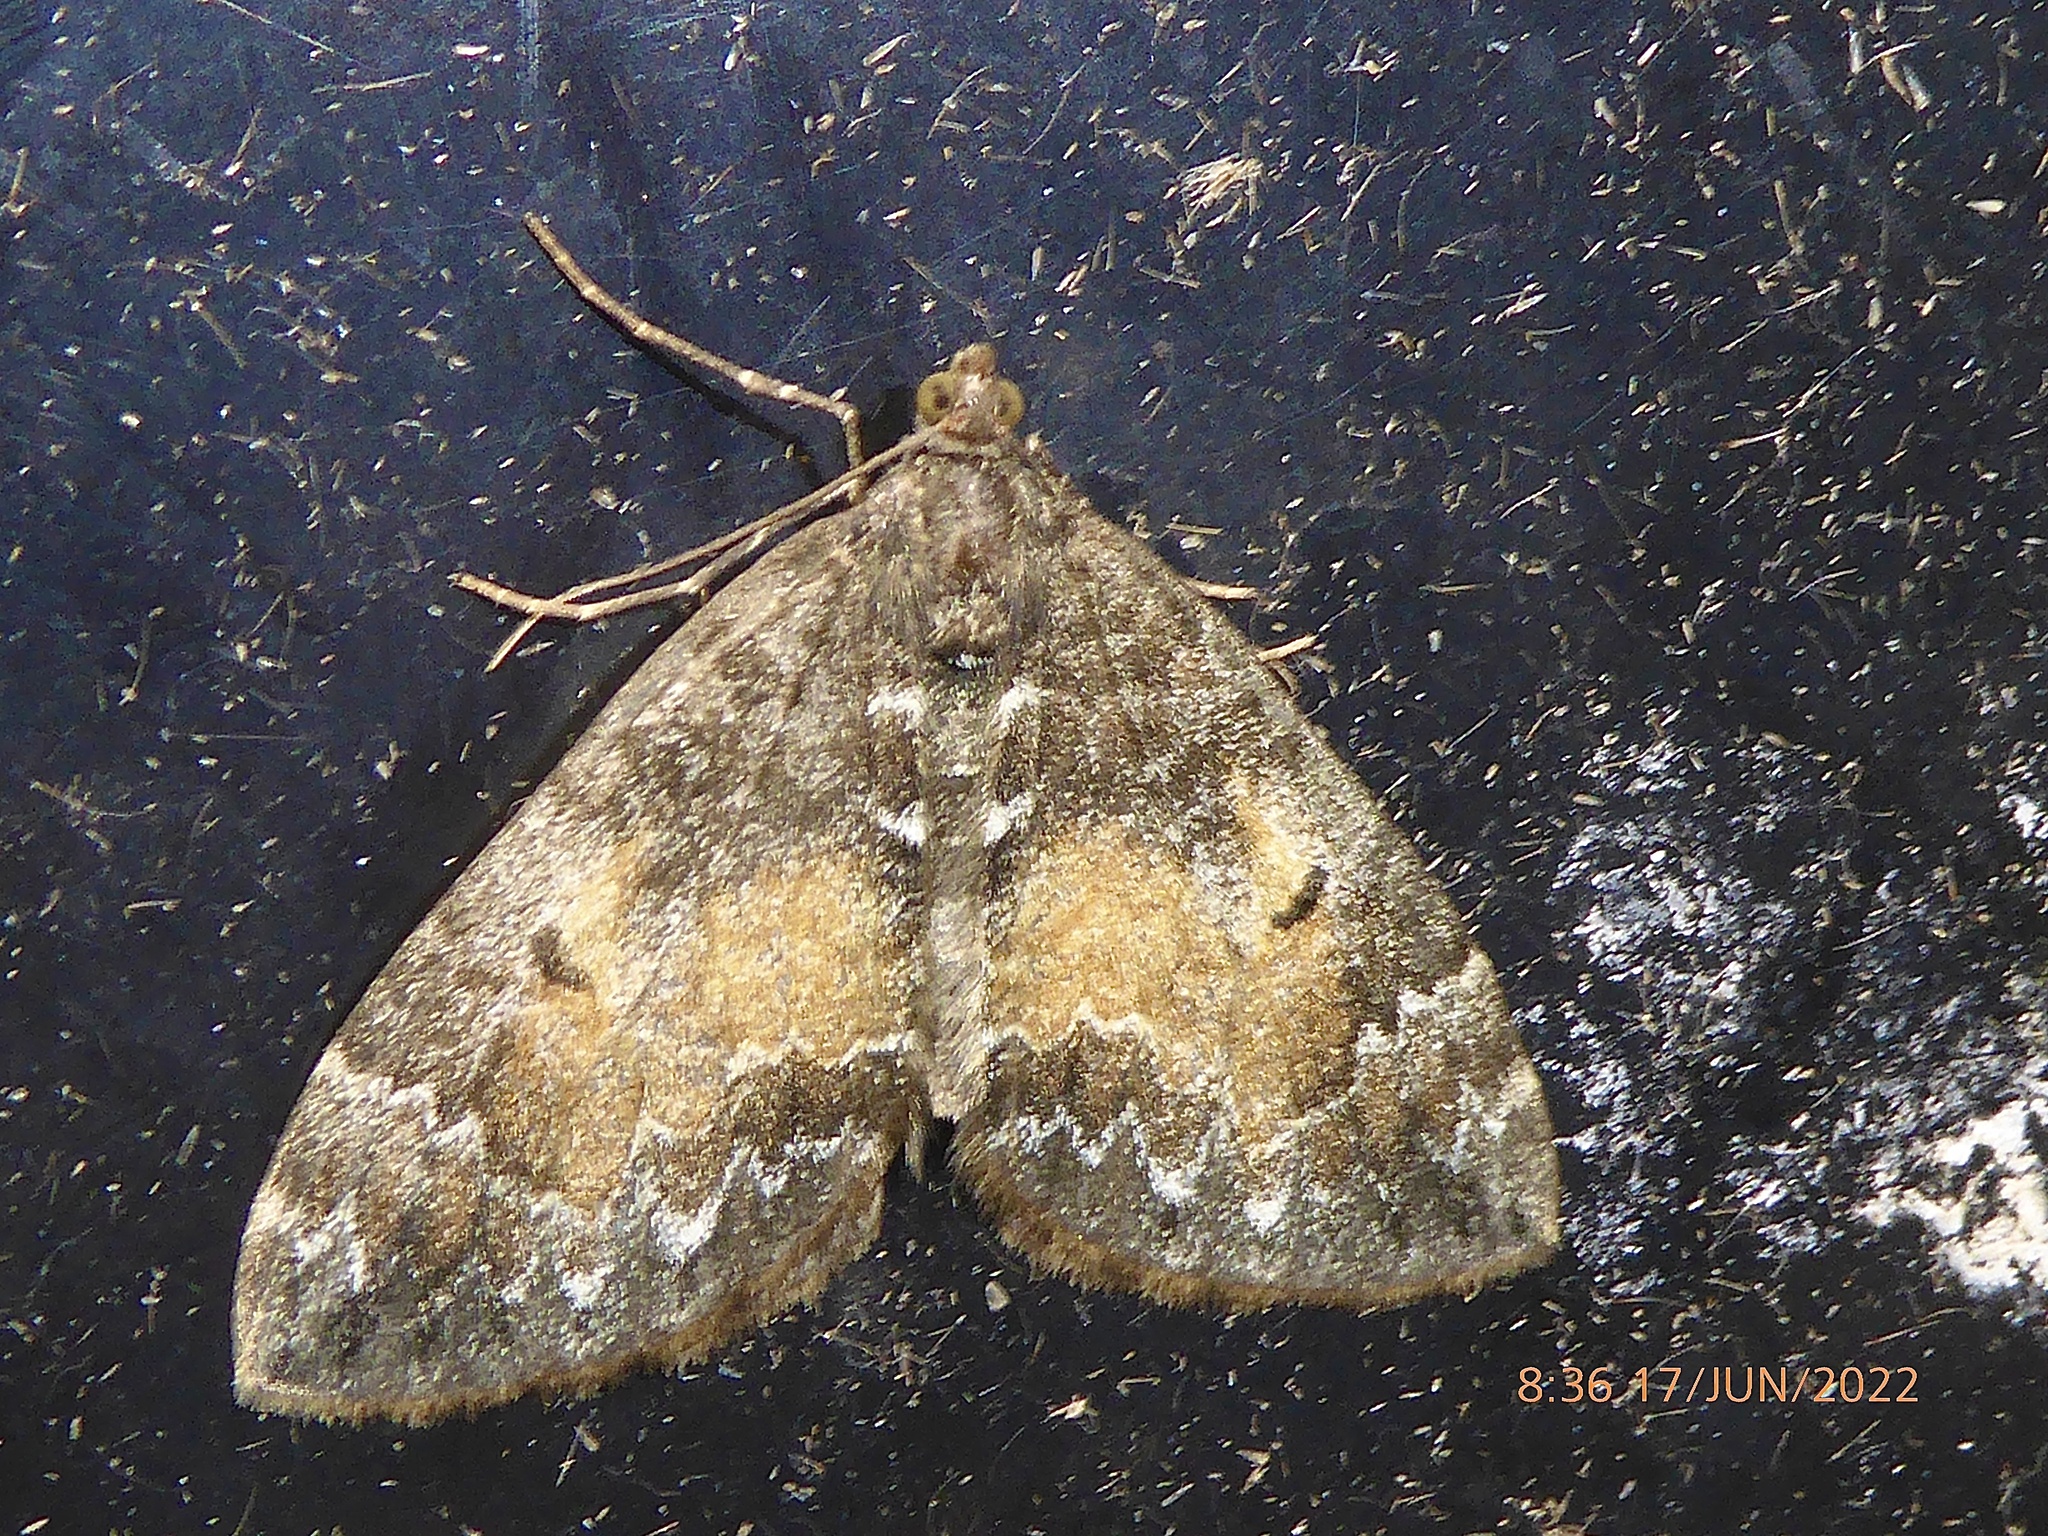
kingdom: Animalia
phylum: Arthropoda
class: Insecta
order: Lepidoptera
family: Geometridae
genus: Dysstroma
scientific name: Dysstroma truncata
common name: Common marbled carpet
